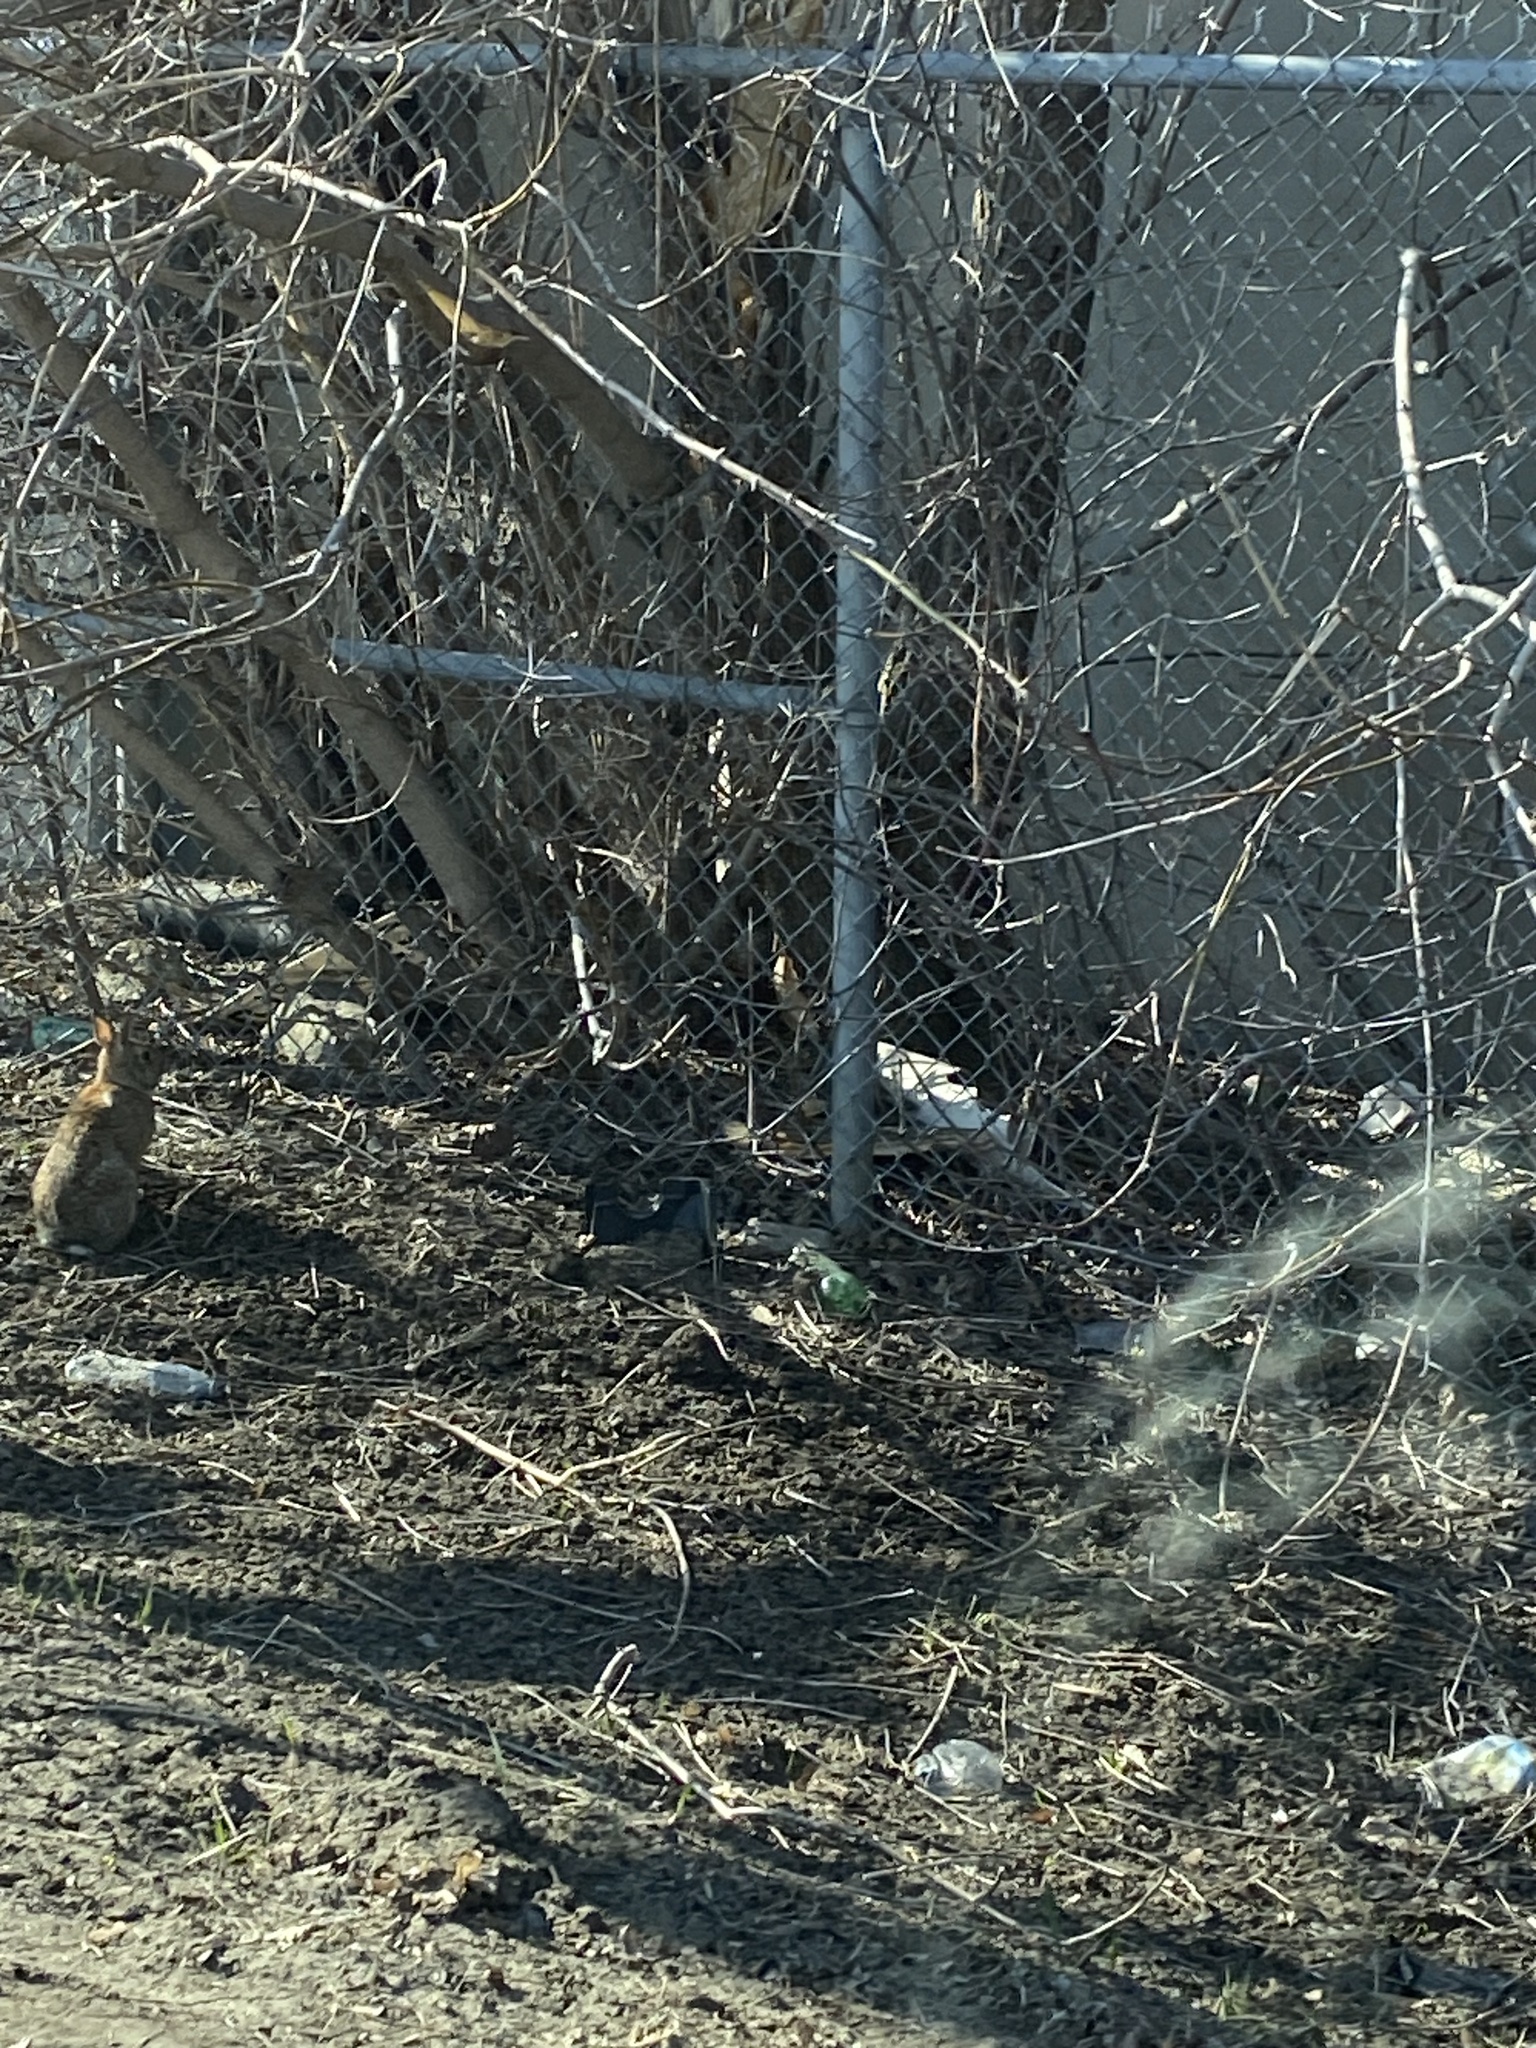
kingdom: Animalia
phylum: Chordata
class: Mammalia
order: Lagomorpha
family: Leporidae
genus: Sylvilagus
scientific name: Sylvilagus floridanus
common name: Eastern cottontail
